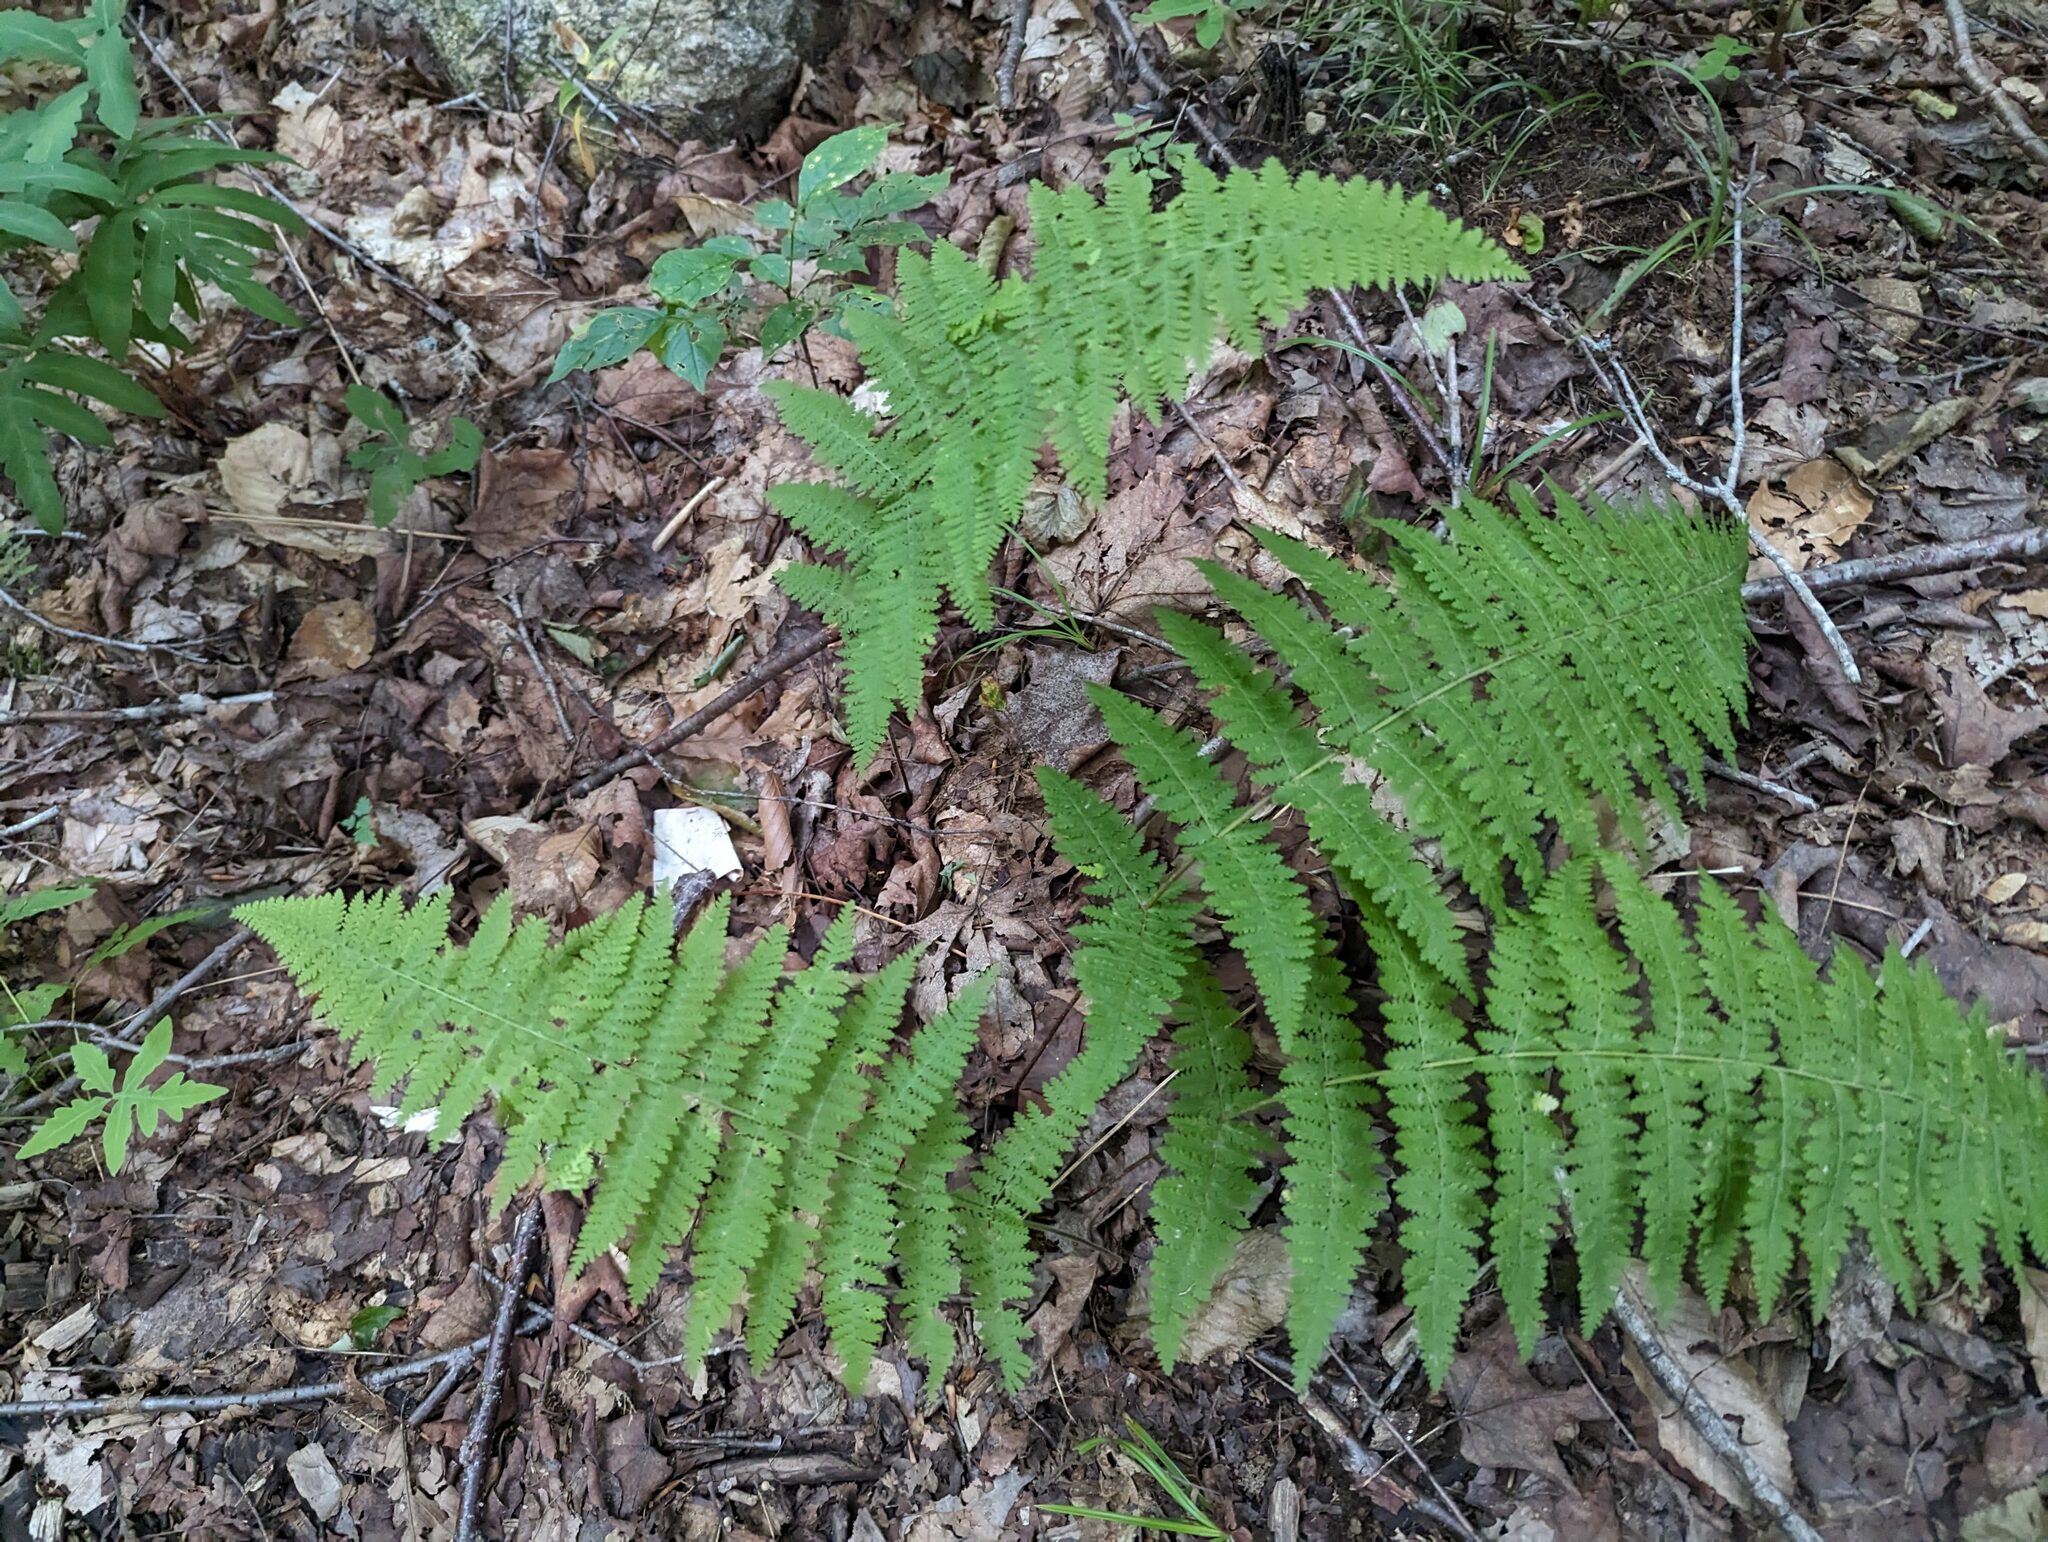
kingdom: Plantae
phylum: Tracheophyta
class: Polypodiopsida
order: Polypodiales
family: Dennstaedtiaceae
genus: Sitobolium
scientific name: Sitobolium punctilobum
